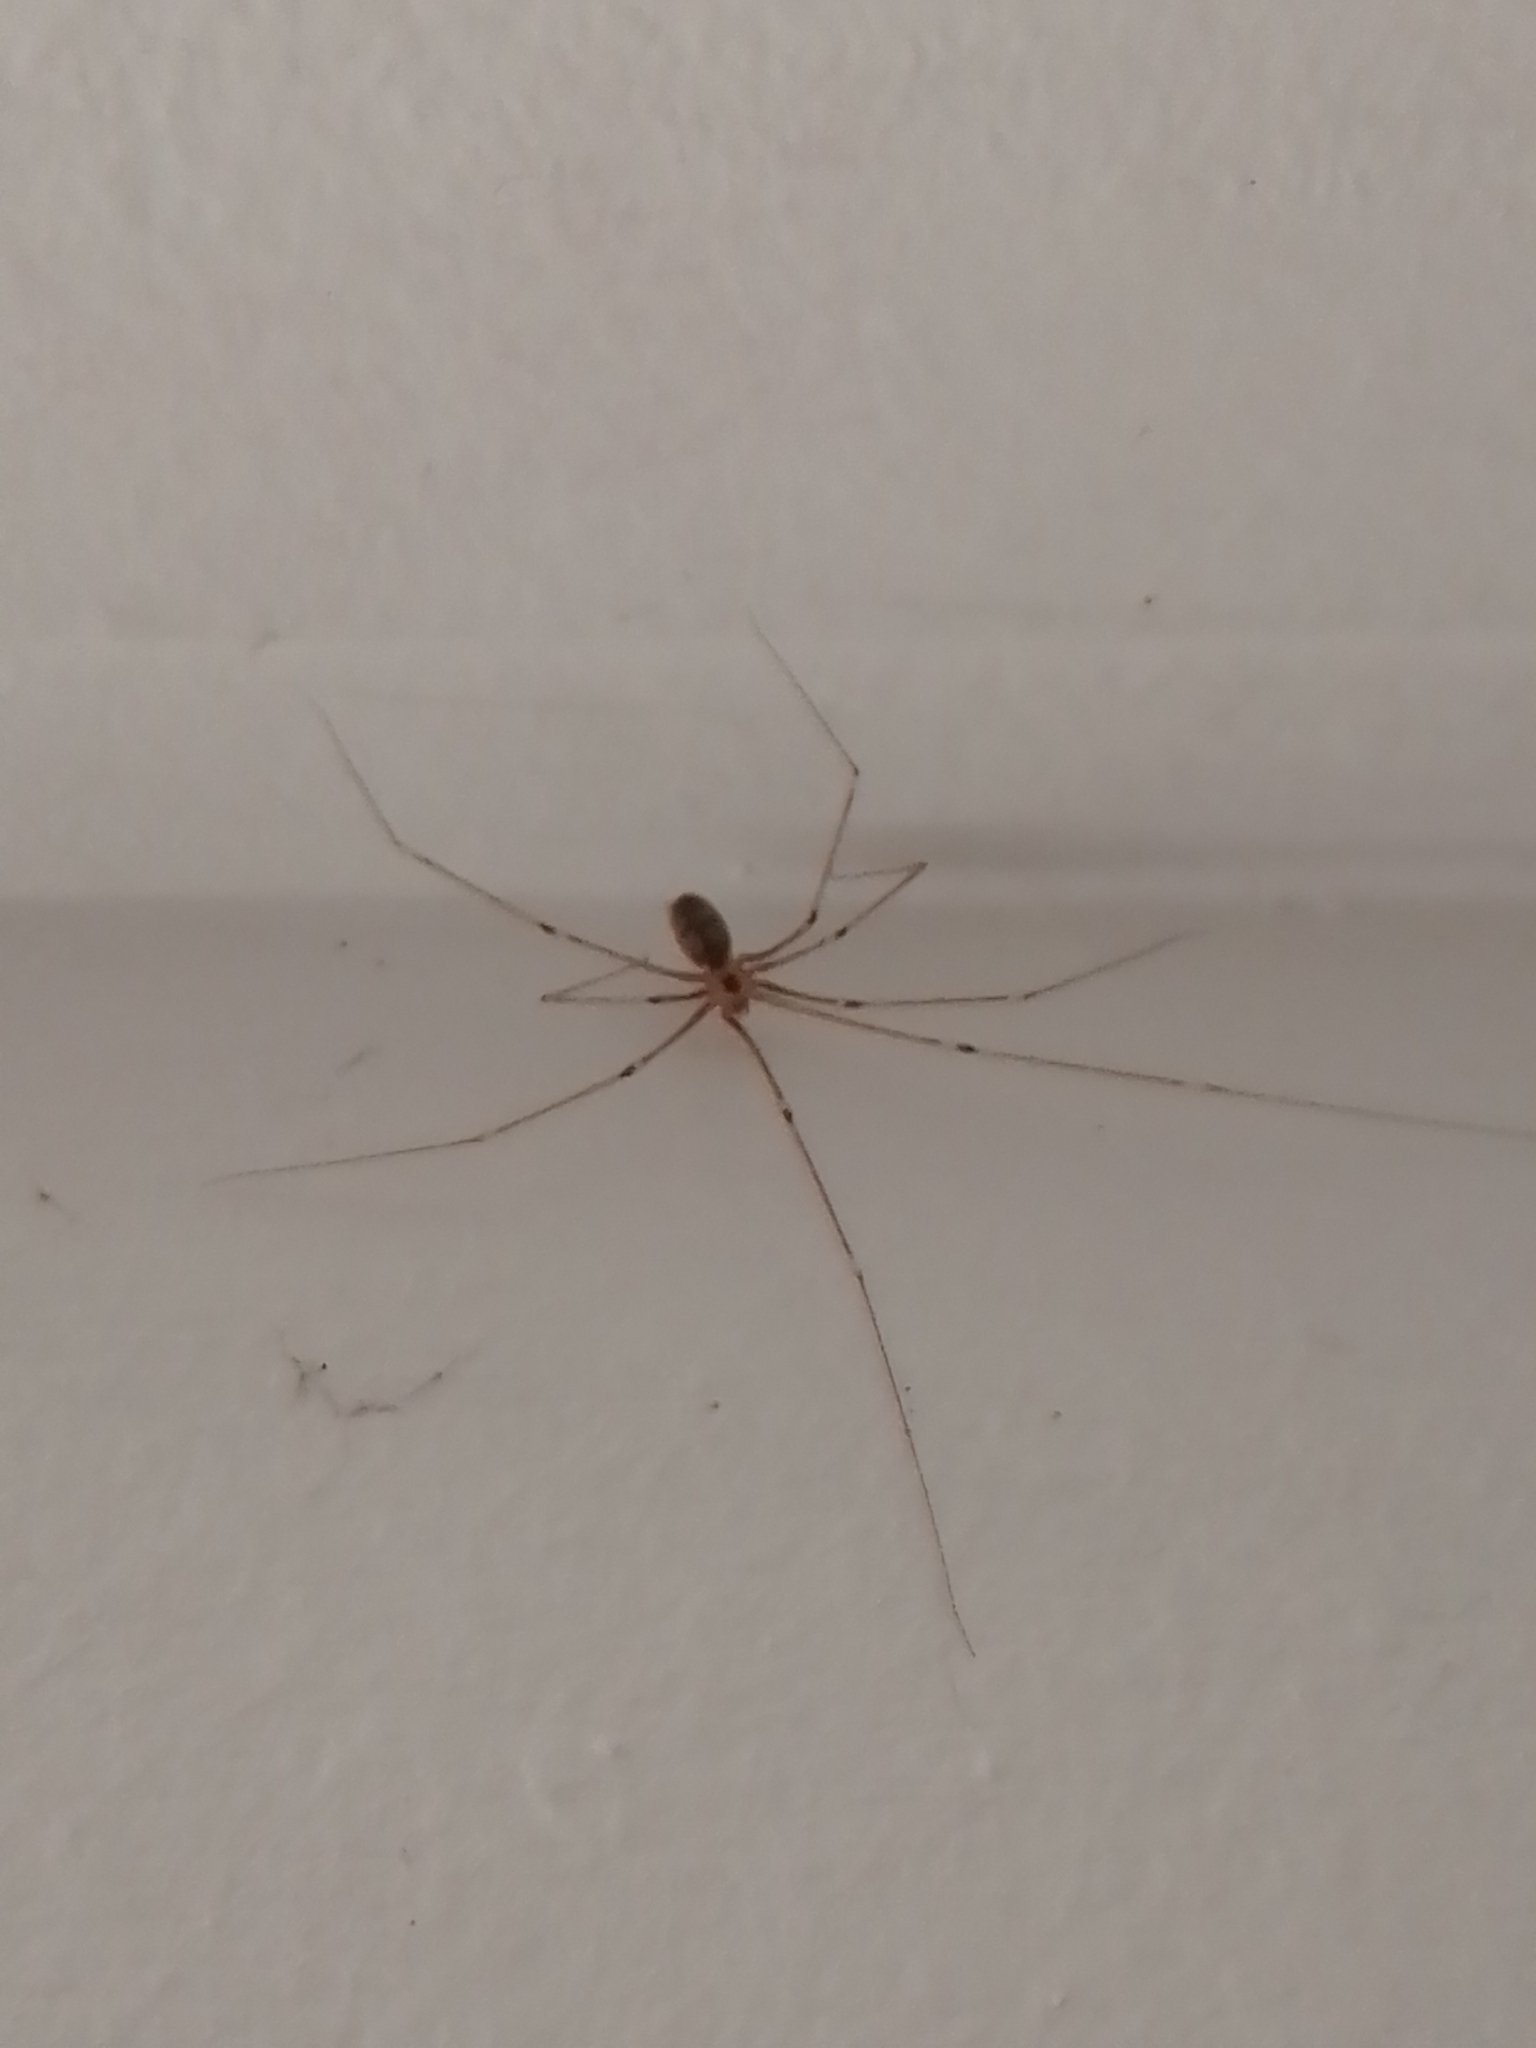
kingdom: Animalia
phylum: Arthropoda
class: Arachnida
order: Araneae
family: Pholcidae
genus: Pholcus
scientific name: Pholcus phalangioides
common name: Longbodied cellar spider
